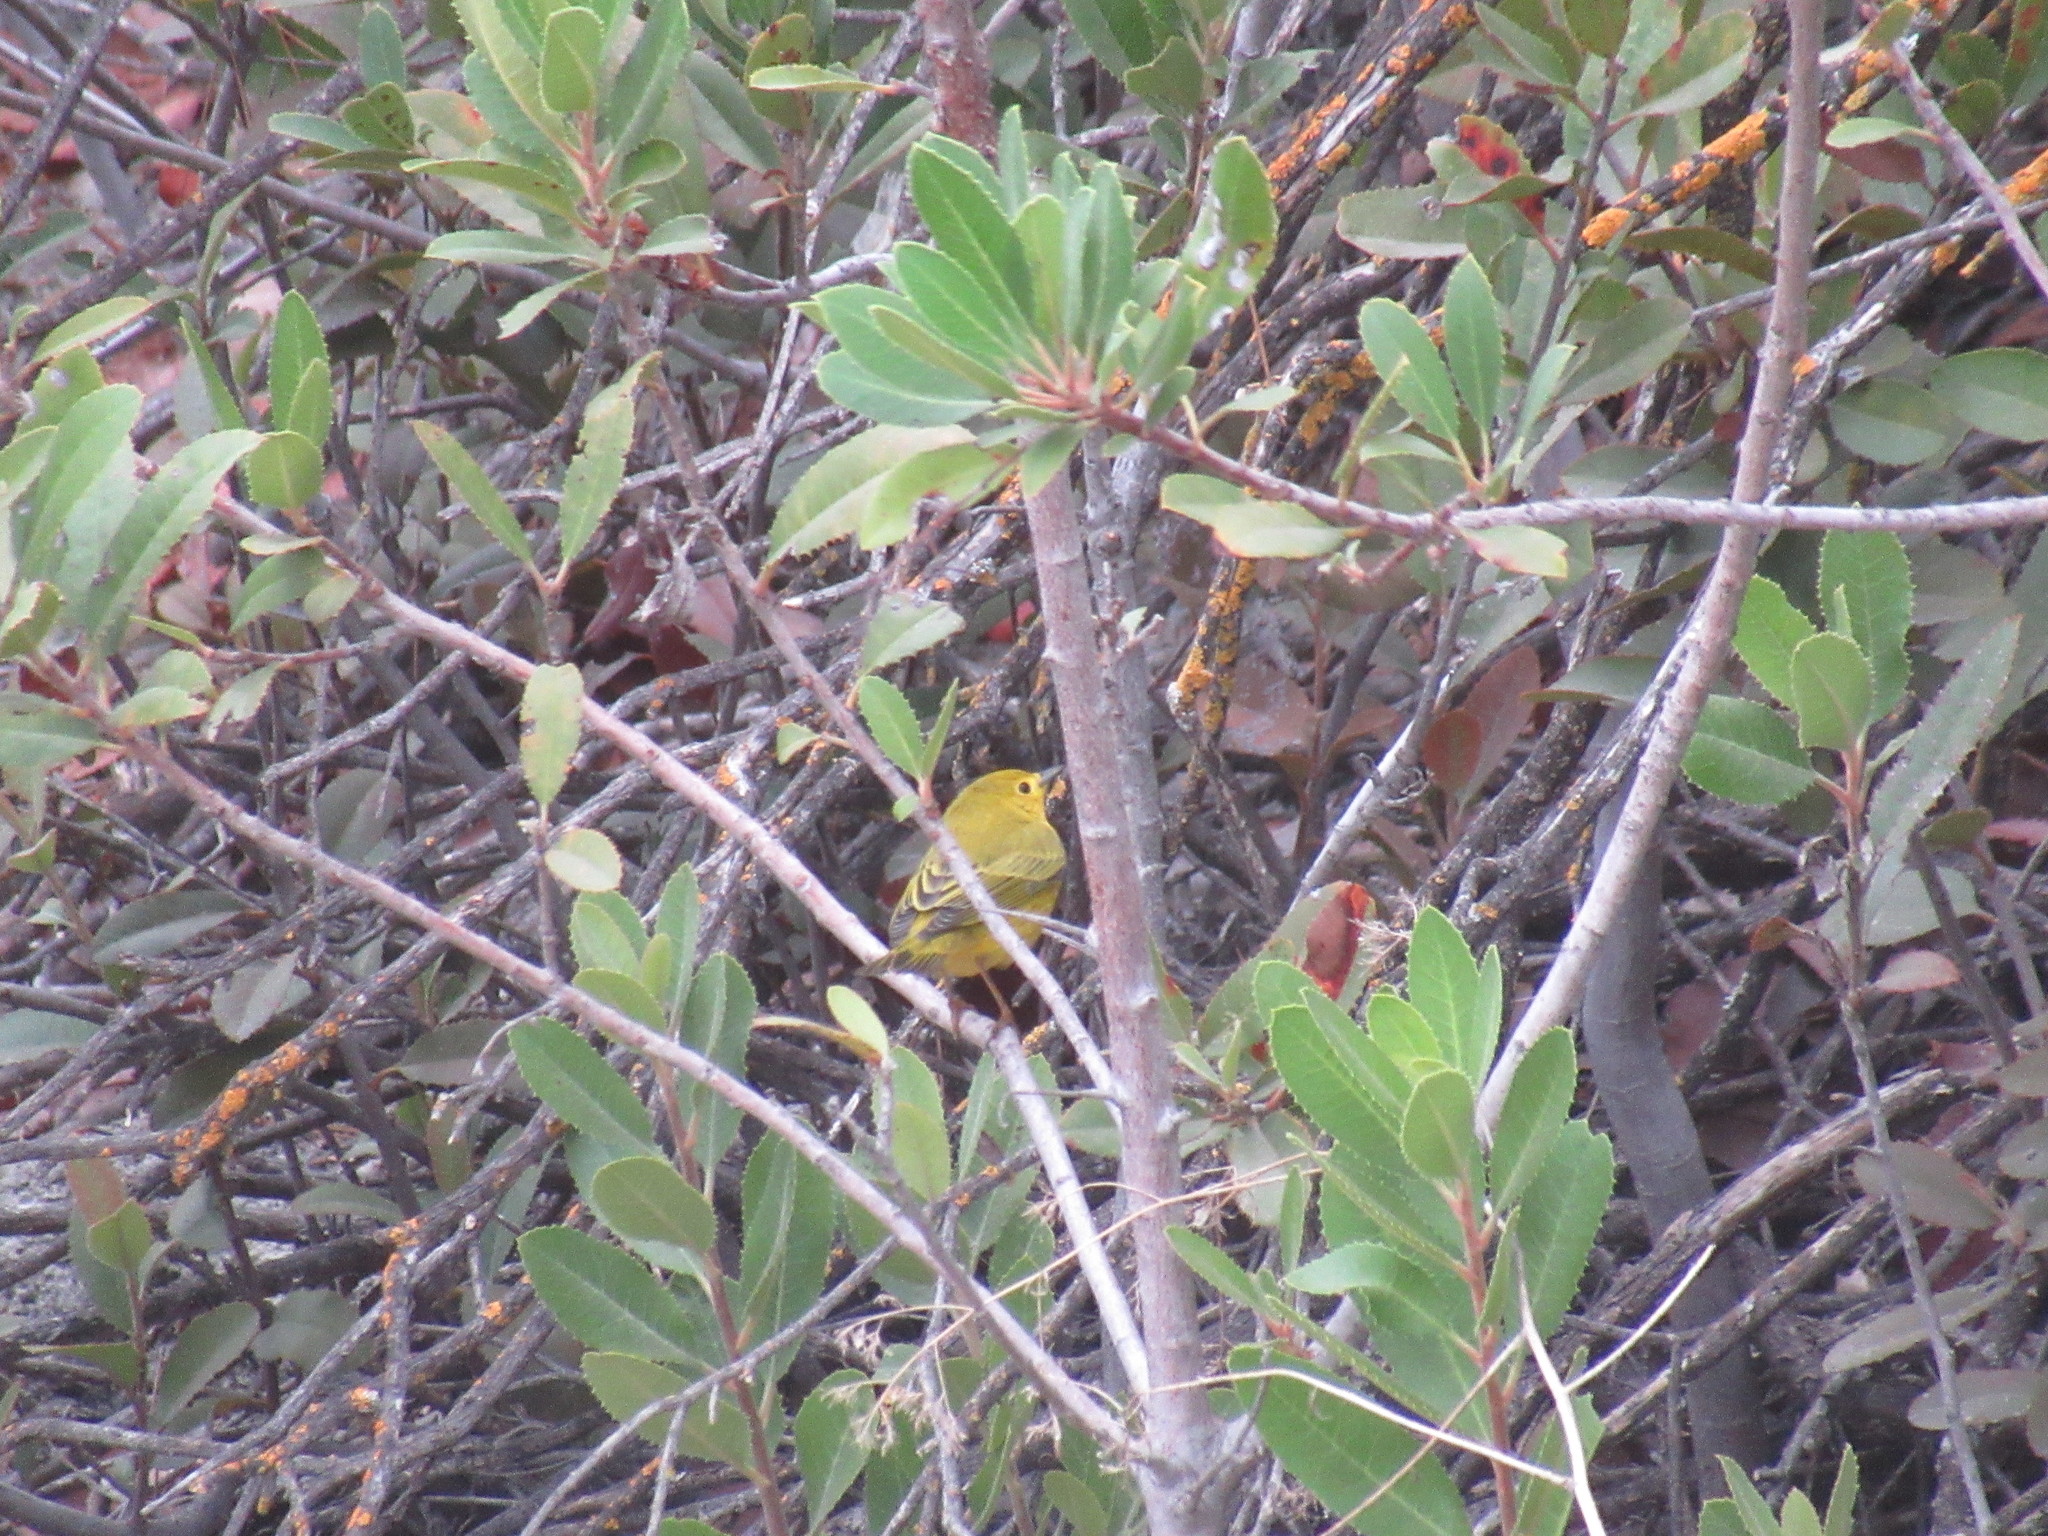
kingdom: Animalia
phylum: Chordata
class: Aves
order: Passeriformes
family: Parulidae
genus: Setophaga
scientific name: Setophaga petechia
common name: Yellow warbler
